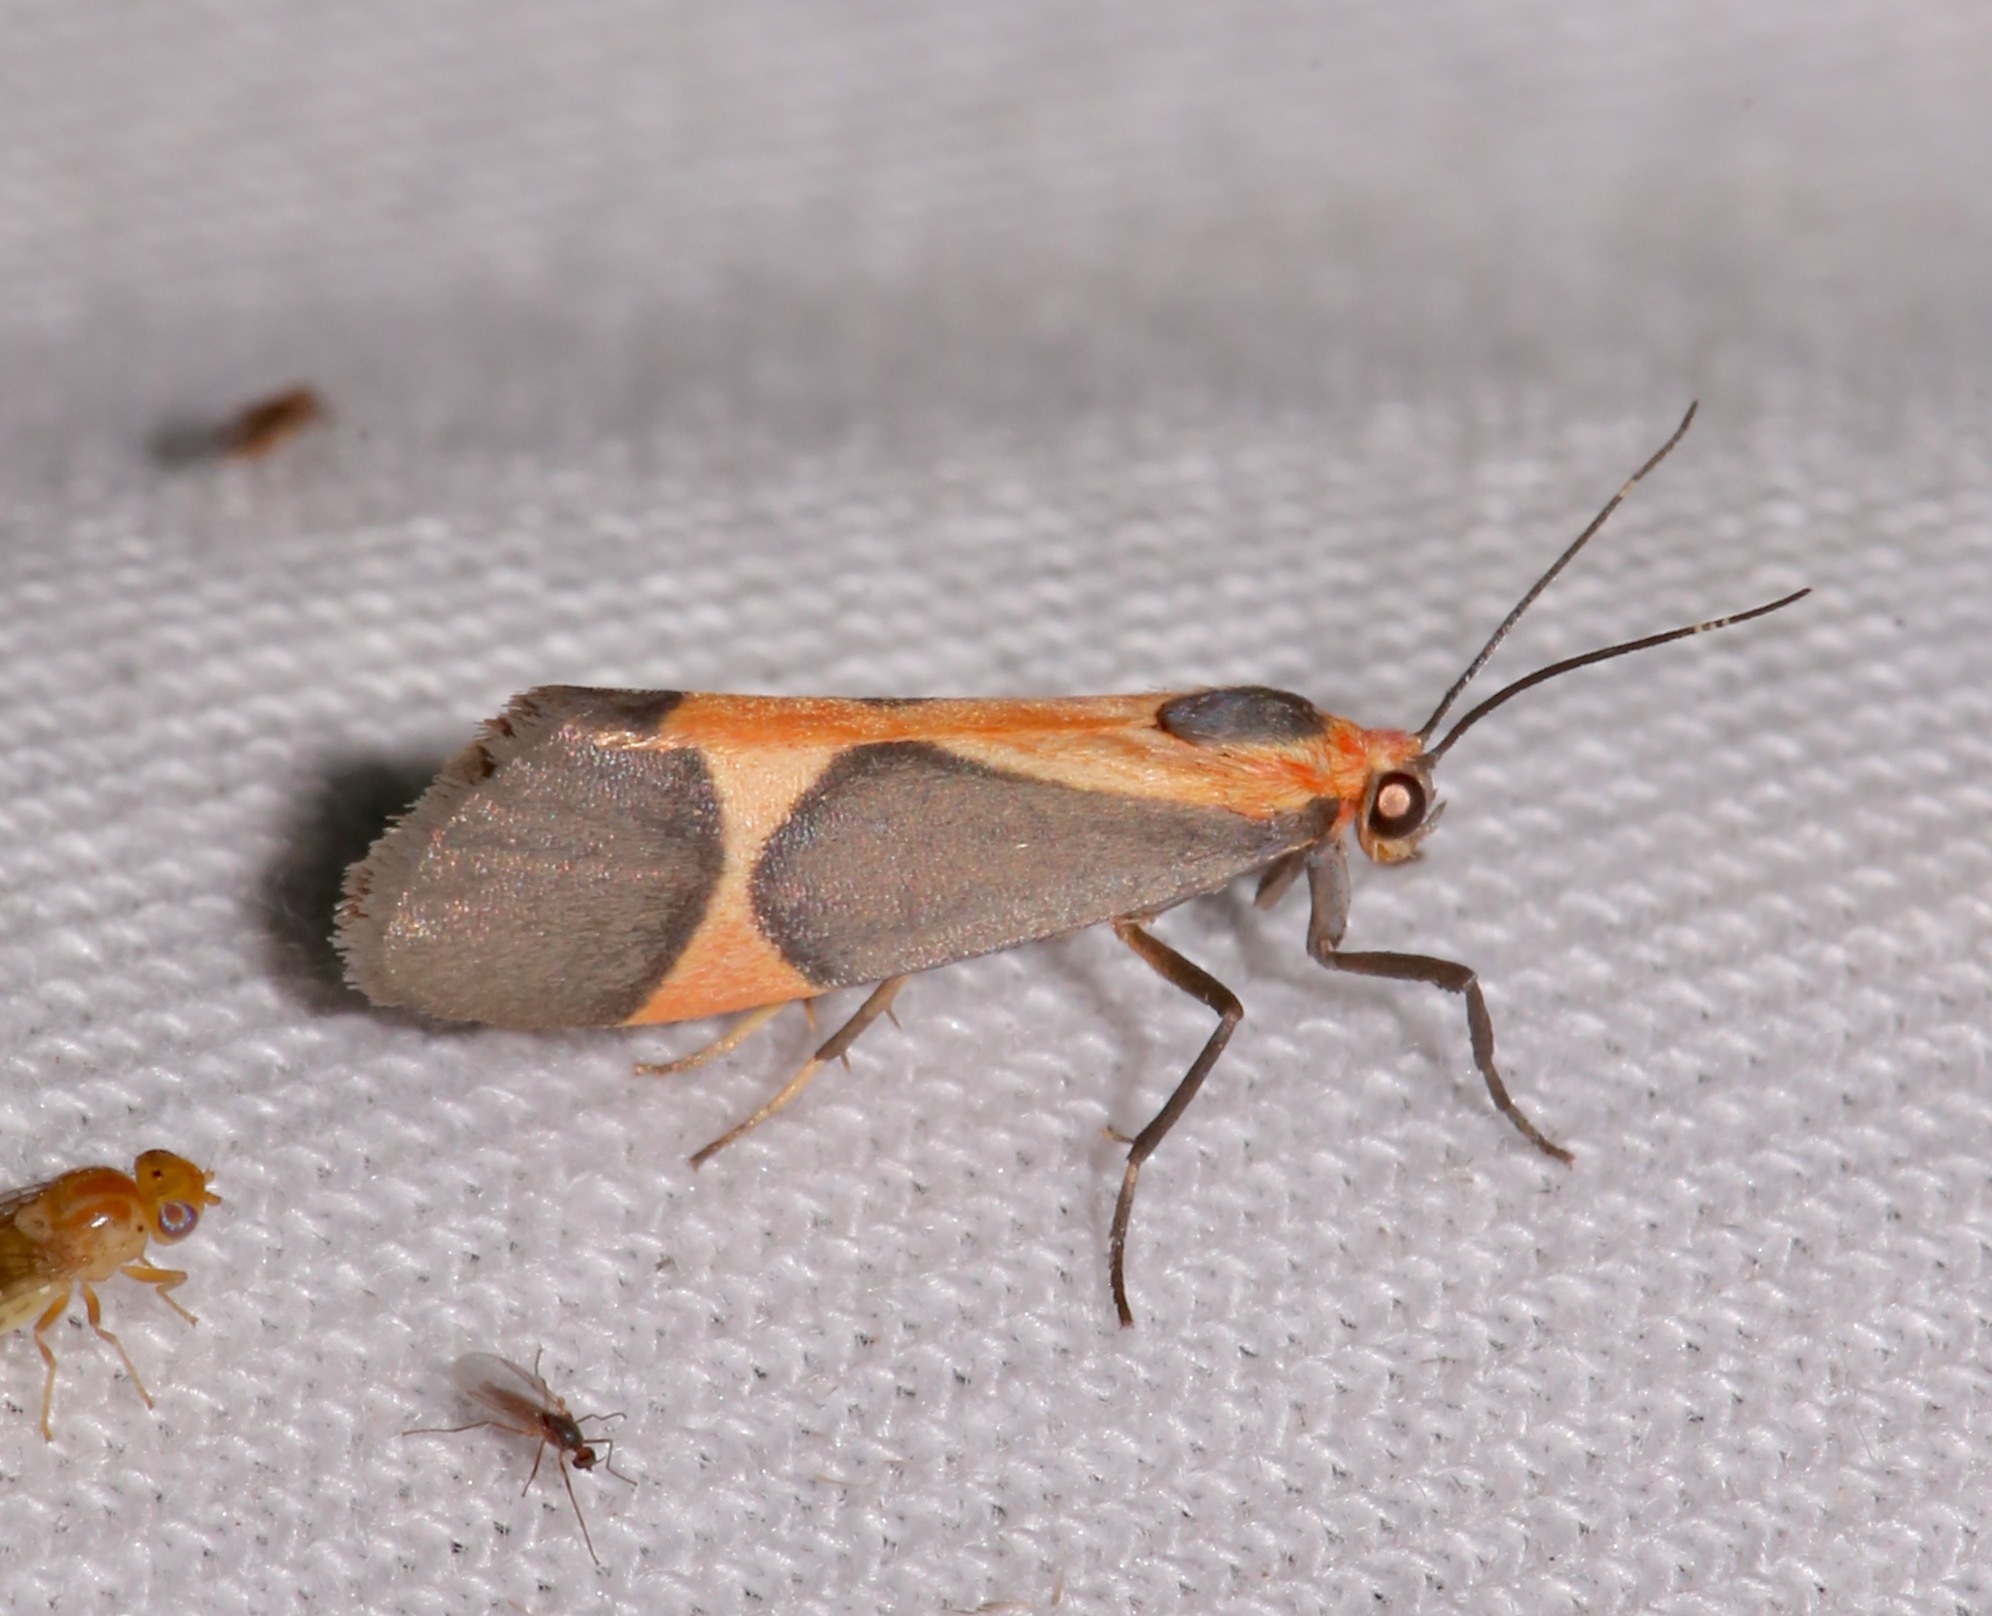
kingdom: Animalia
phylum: Arthropoda
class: Insecta
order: Lepidoptera
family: Erebidae
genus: Cisthene
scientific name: Cisthene martini
